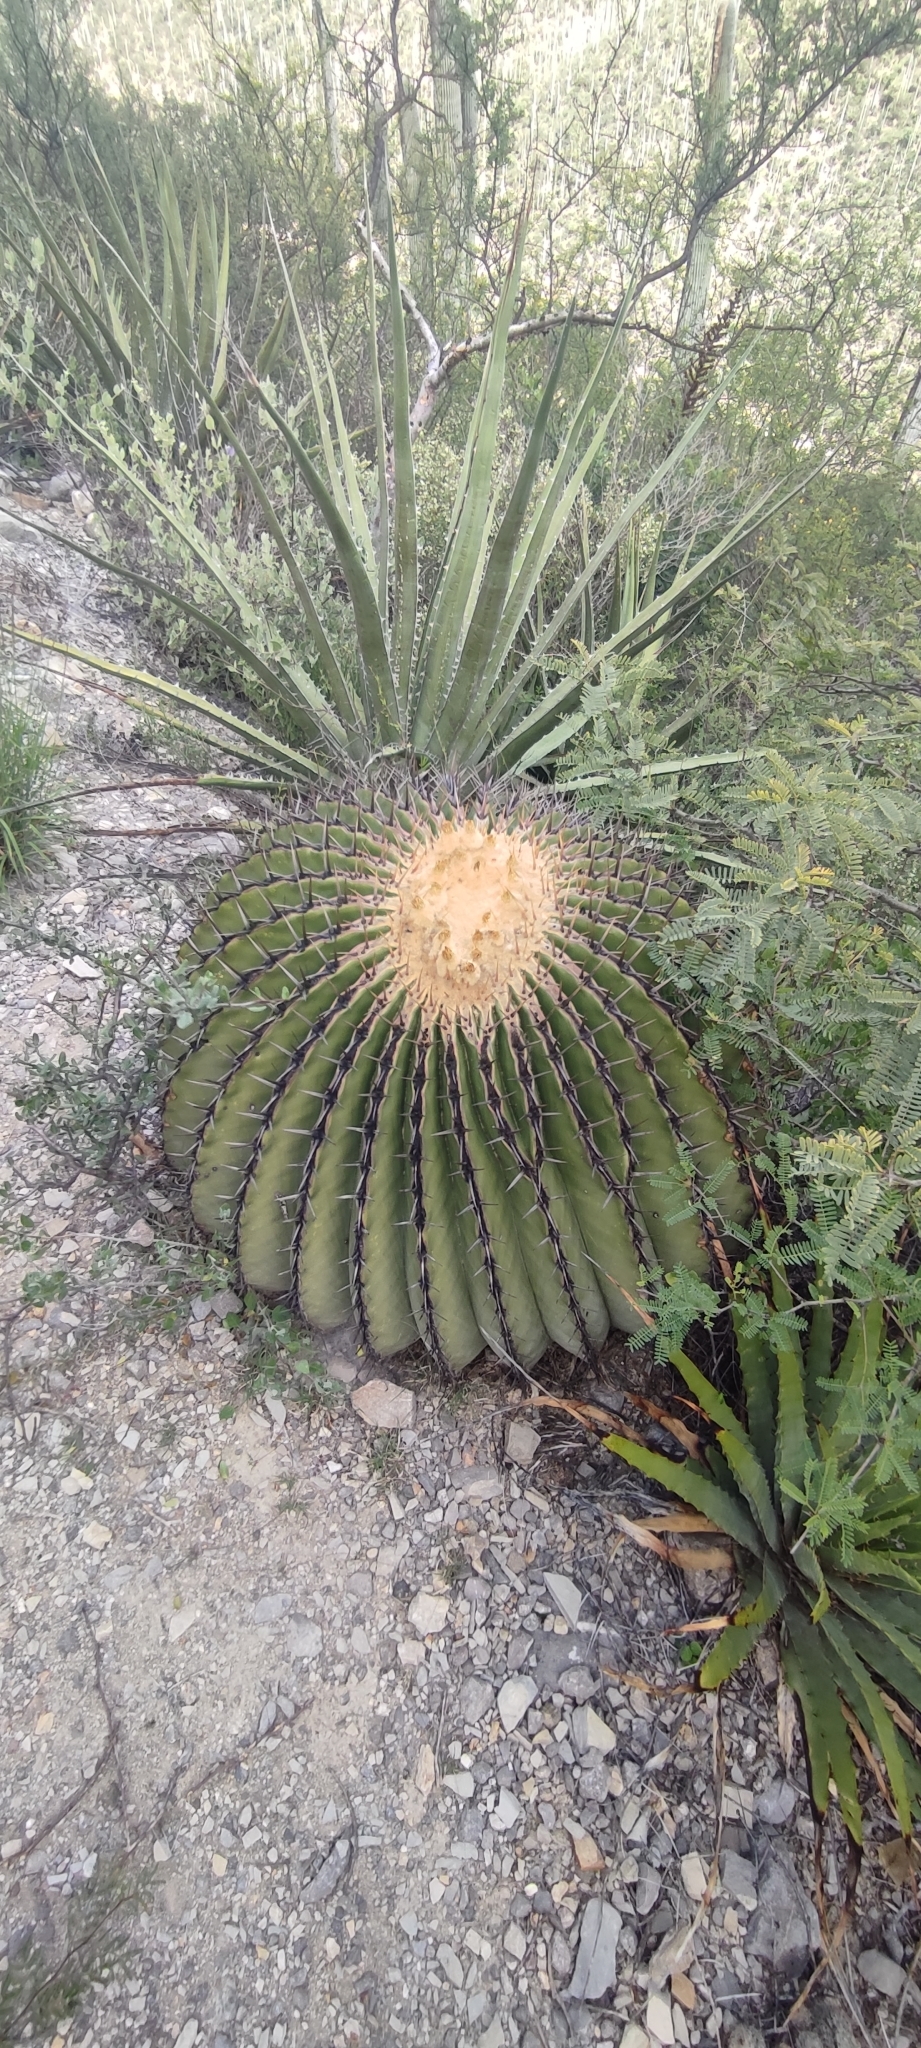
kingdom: Plantae
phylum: Tracheophyta
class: Magnoliopsida
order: Caryophyllales
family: Cactaceae
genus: Echinocactus
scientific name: Echinocactus platyacanthus
